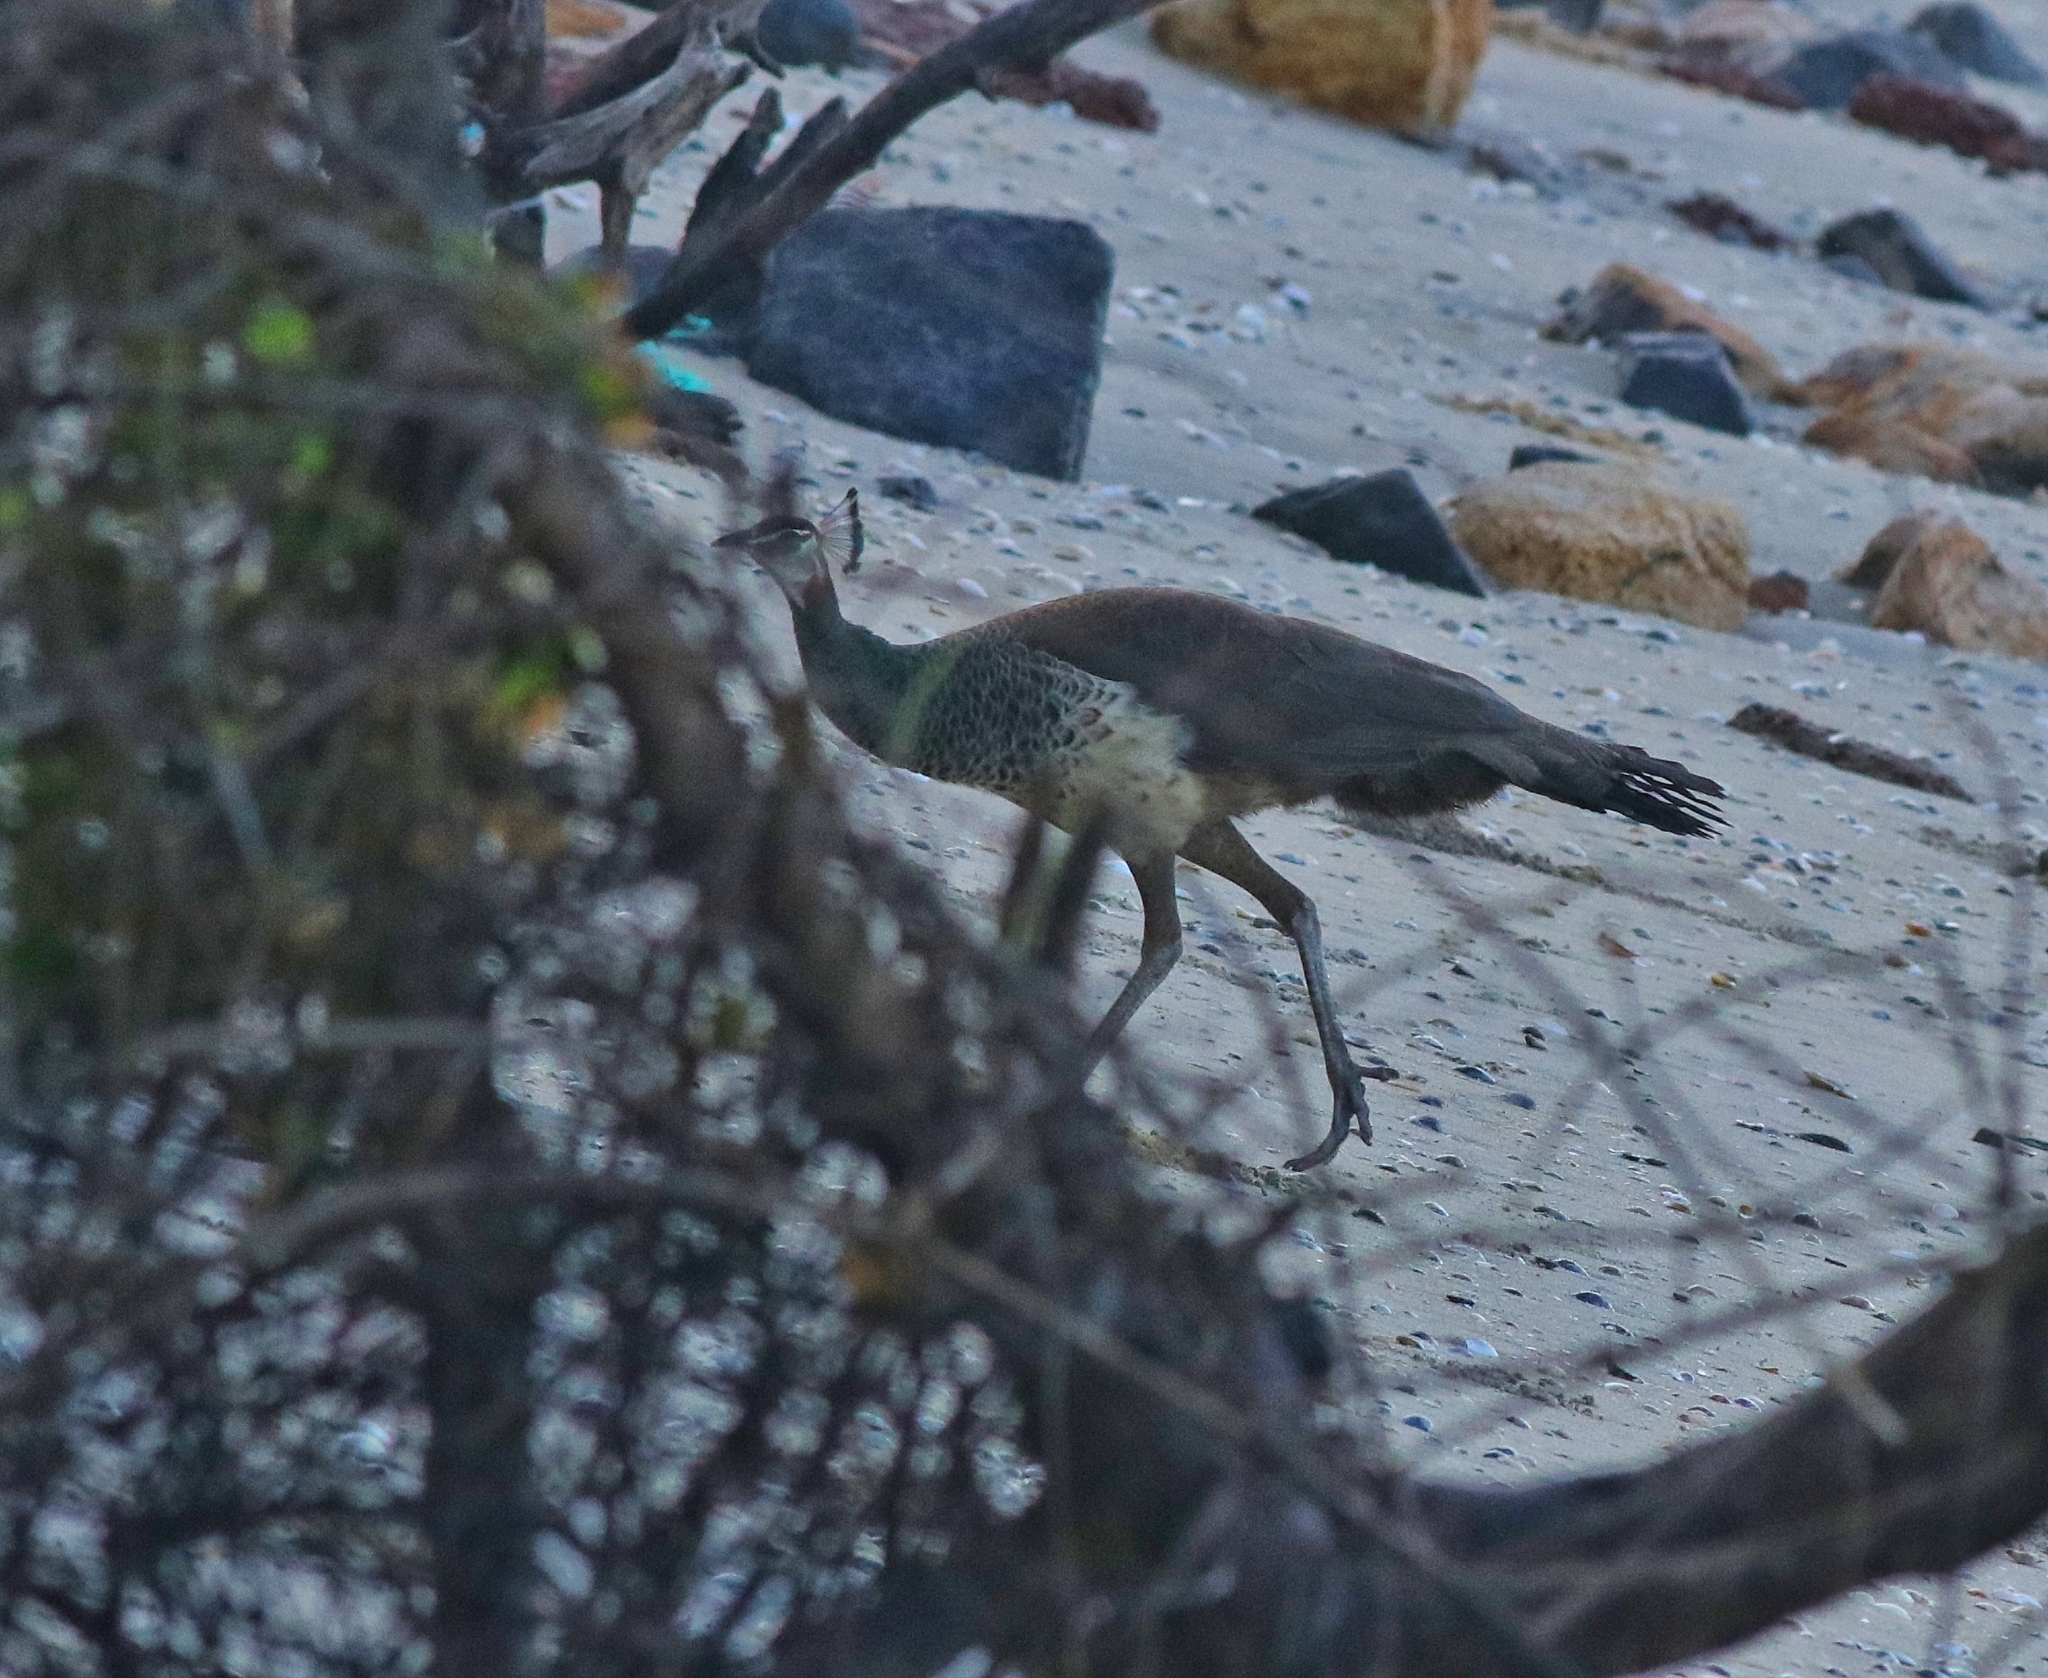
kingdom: Animalia
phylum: Chordata
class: Aves
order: Galliformes
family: Phasianidae
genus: Pavo
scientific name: Pavo cristatus
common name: Indian peafowl
